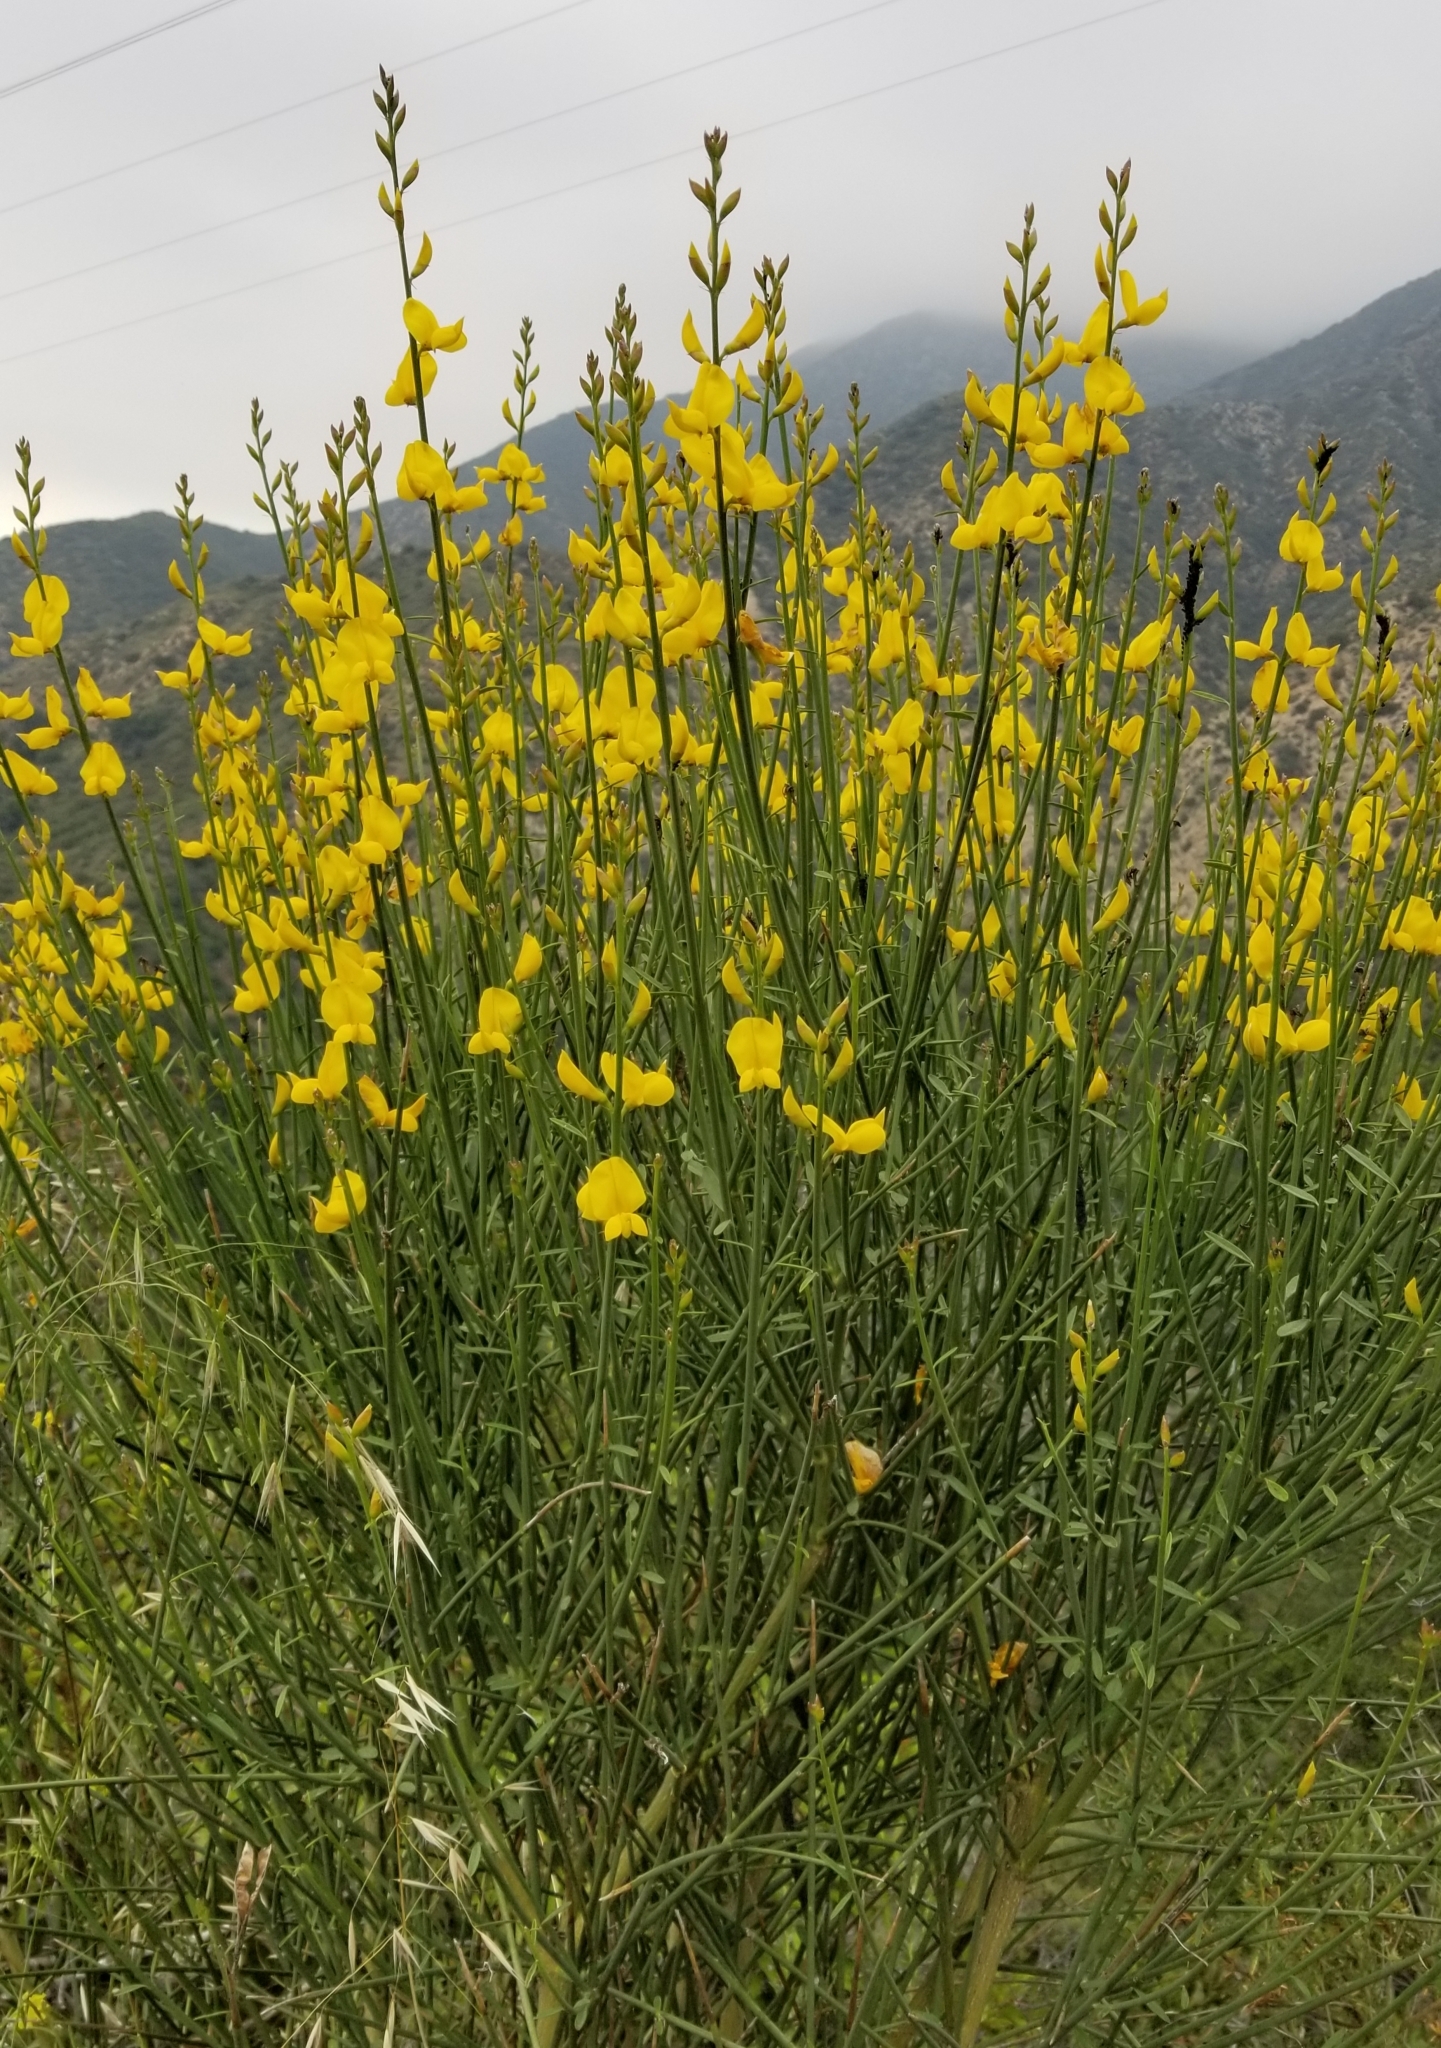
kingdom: Plantae
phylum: Tracheophyta
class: Magnoliopsida
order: Fabales
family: Fabaceae
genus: Spartium
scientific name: Spartium junceum
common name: Spanish broom
